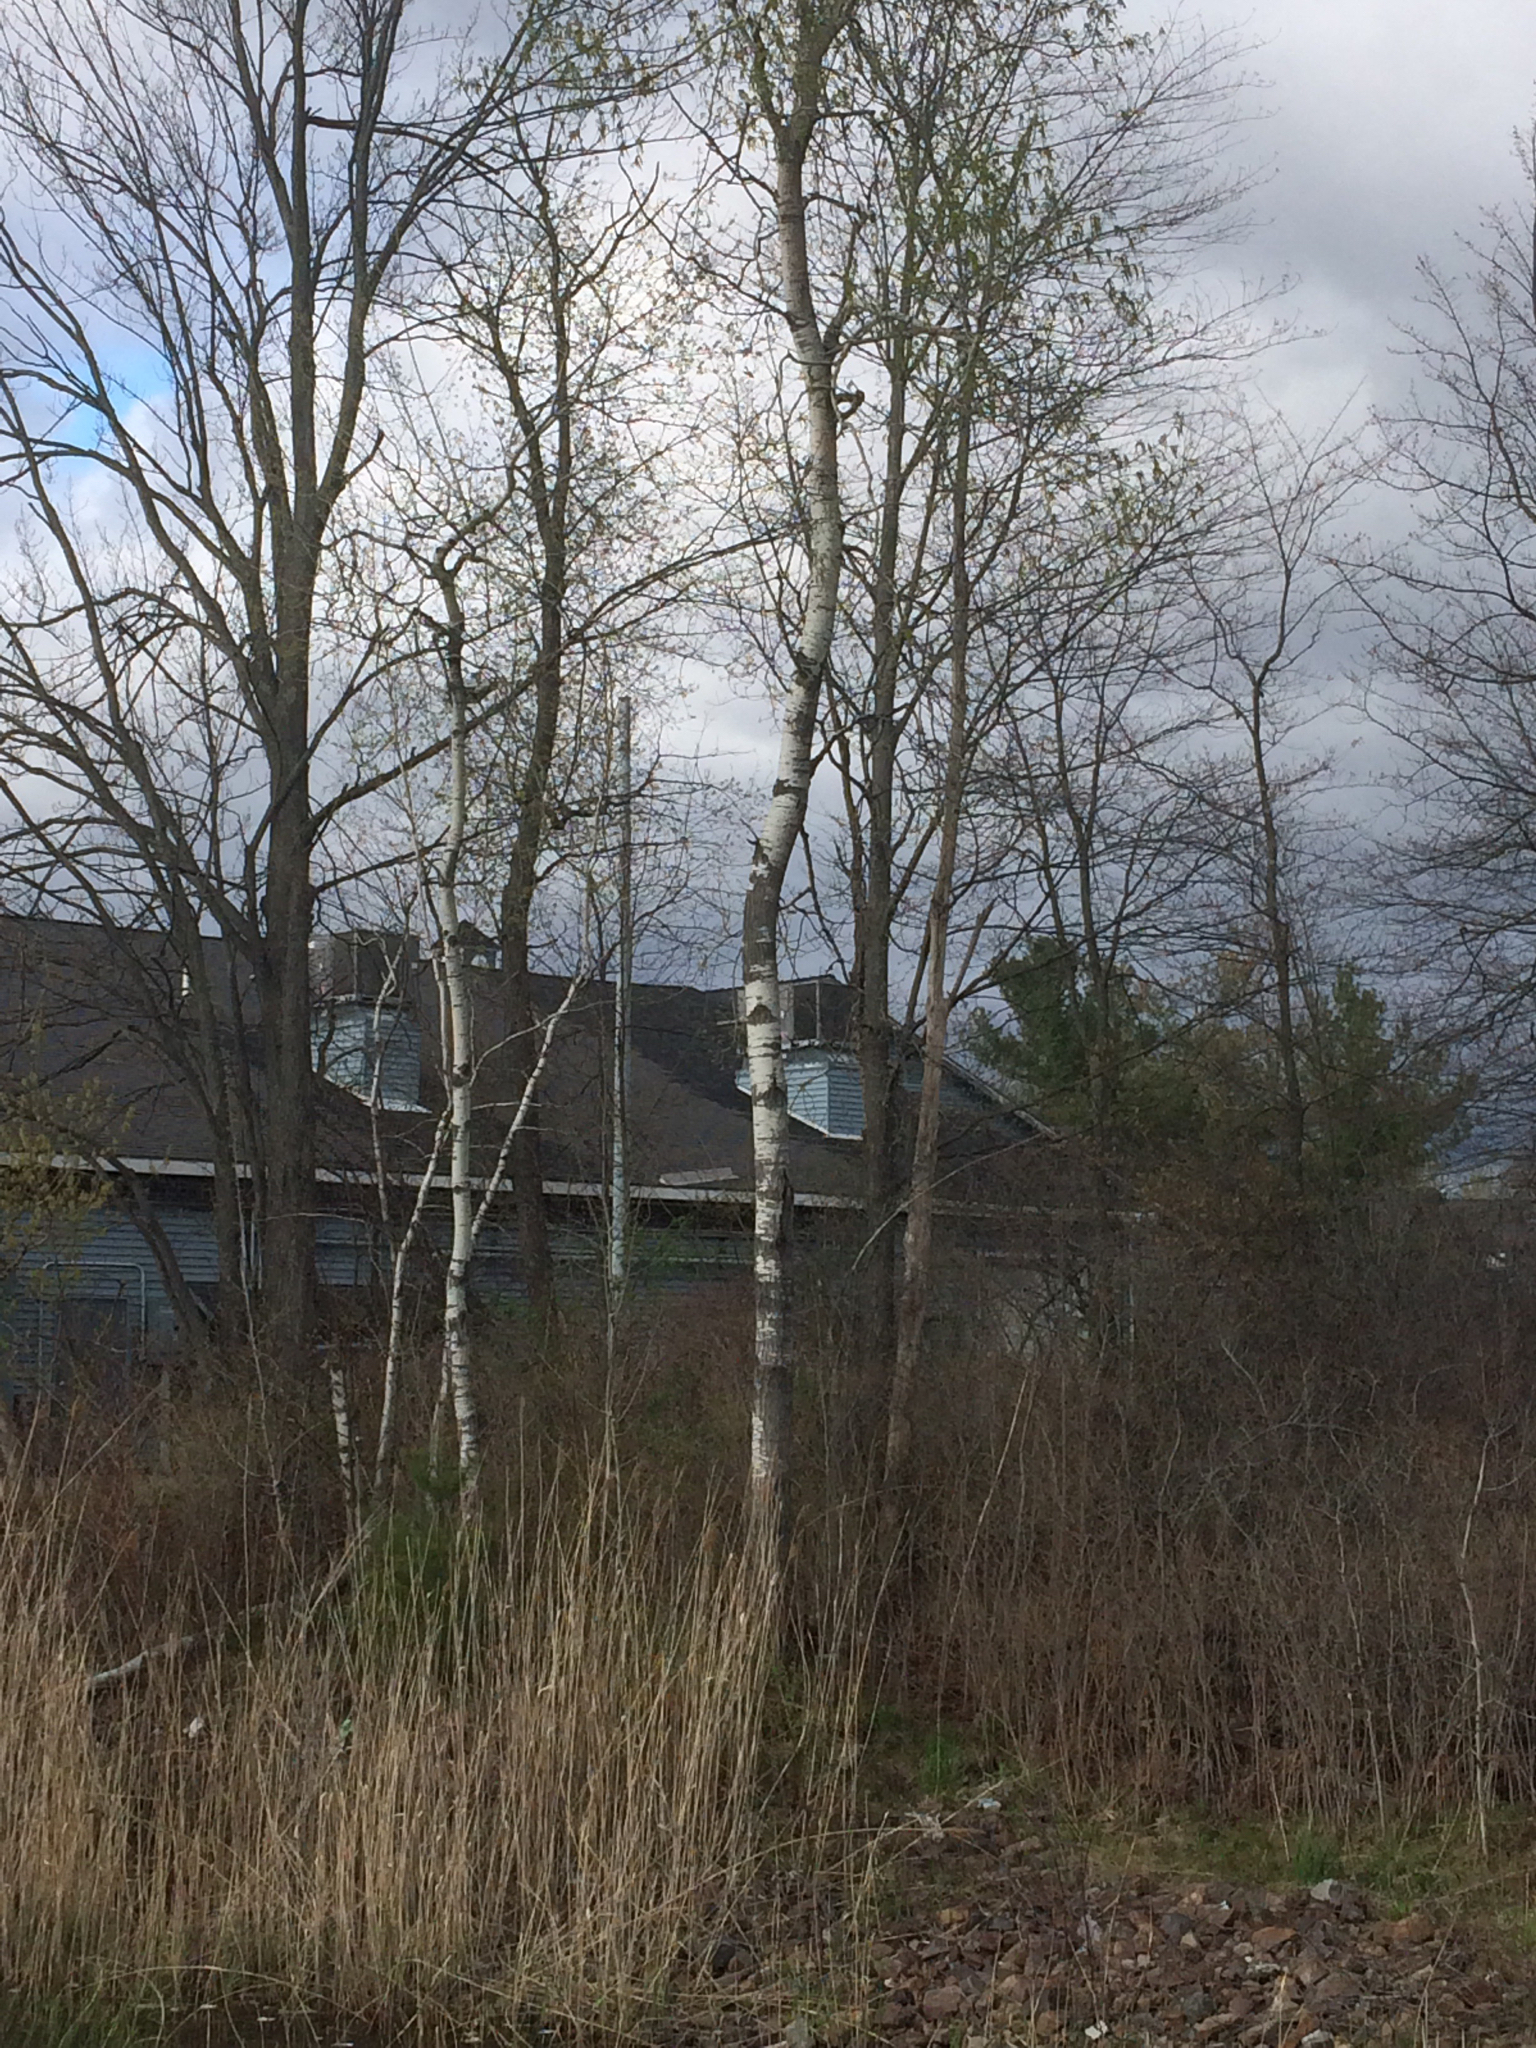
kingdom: Plantae
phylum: Tracheophyta
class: Magnoliopsida
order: Malpighiales
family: Salicaceae
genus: Populus
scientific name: Populus tremuloides
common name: Quaking aspen
